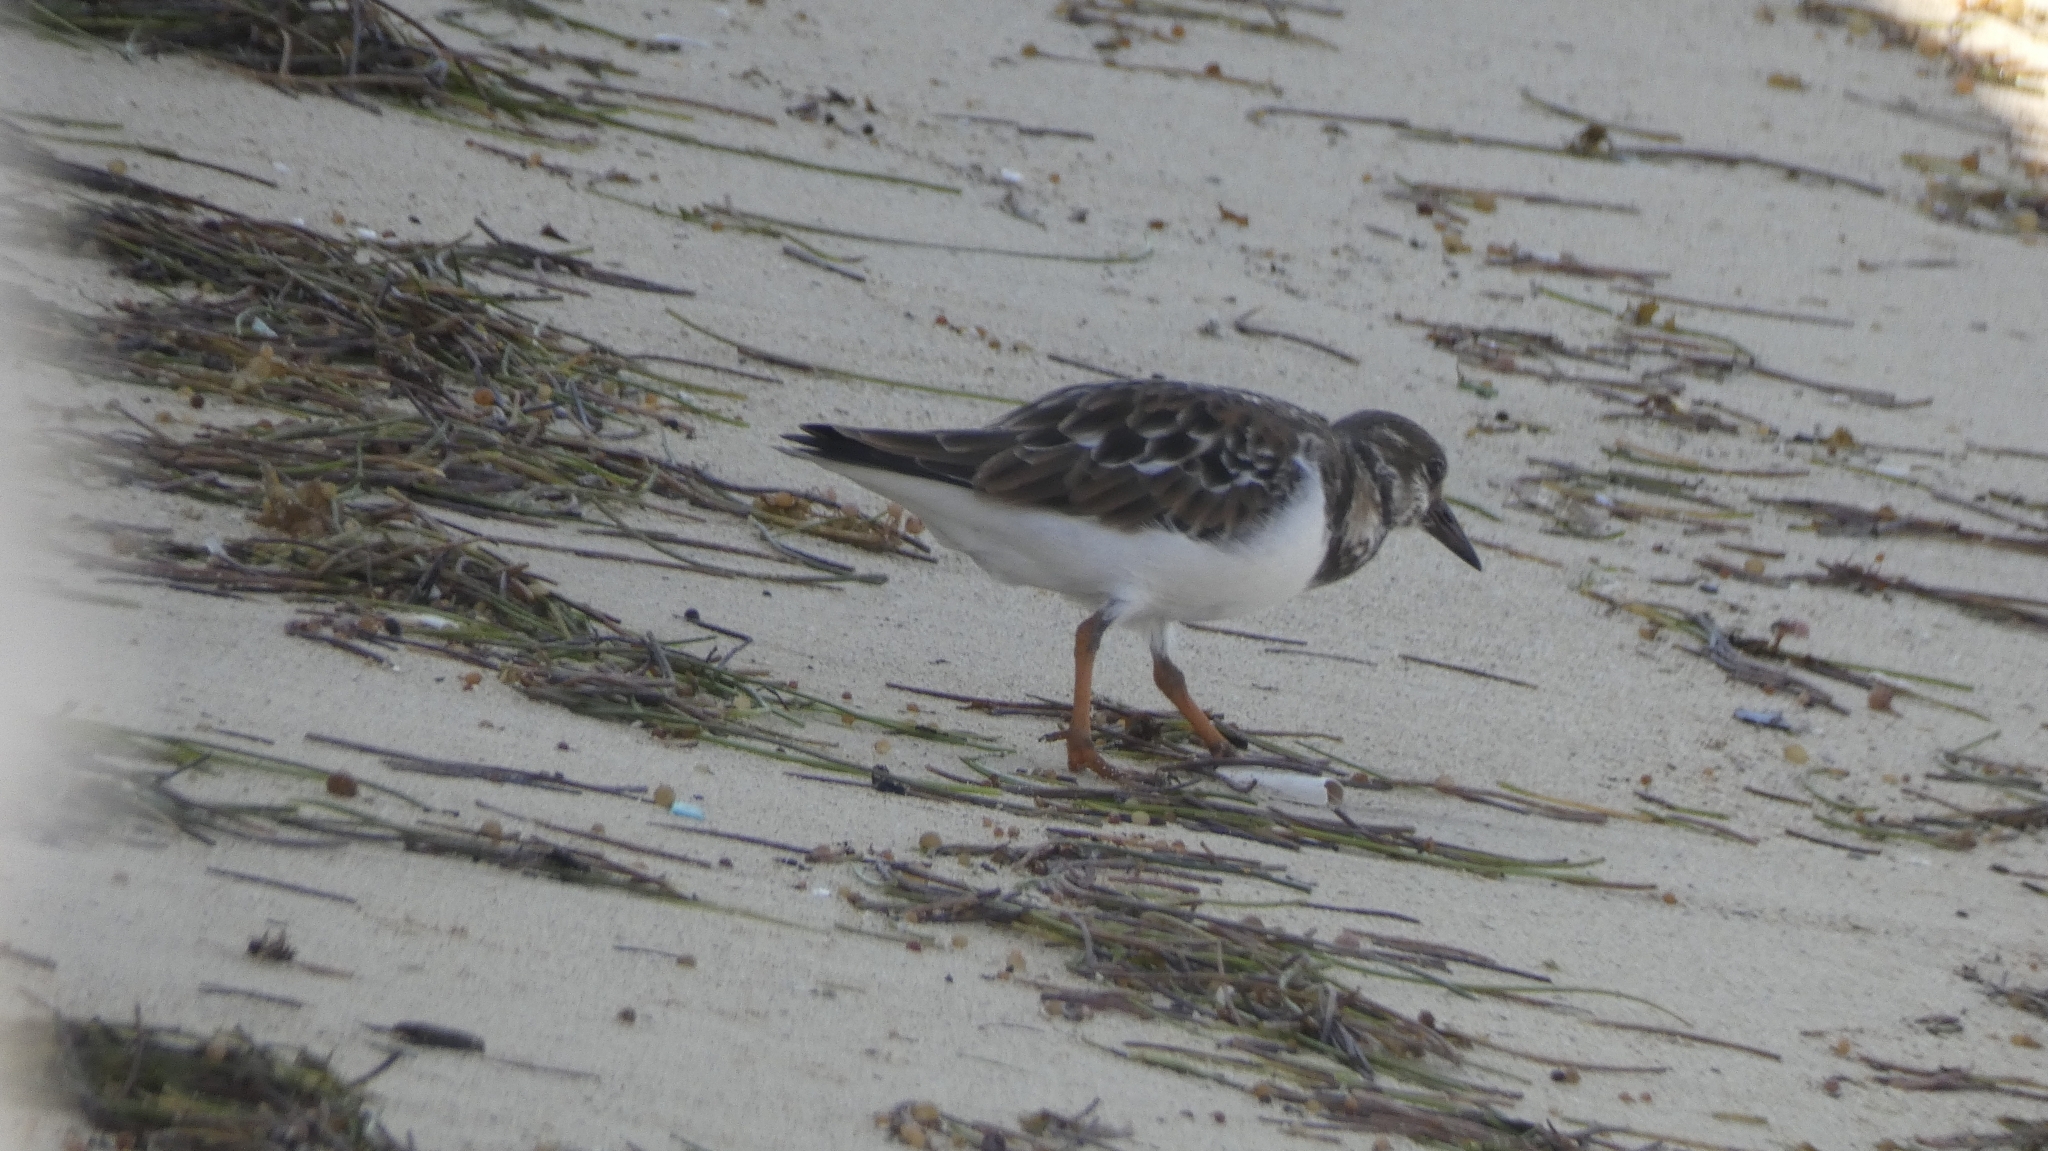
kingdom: Animalia
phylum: Chordata
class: Aves
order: Charadriiformes
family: Scolopacidae
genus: Arenaria
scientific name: Arenaria interpres
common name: Ruddy turnstone
